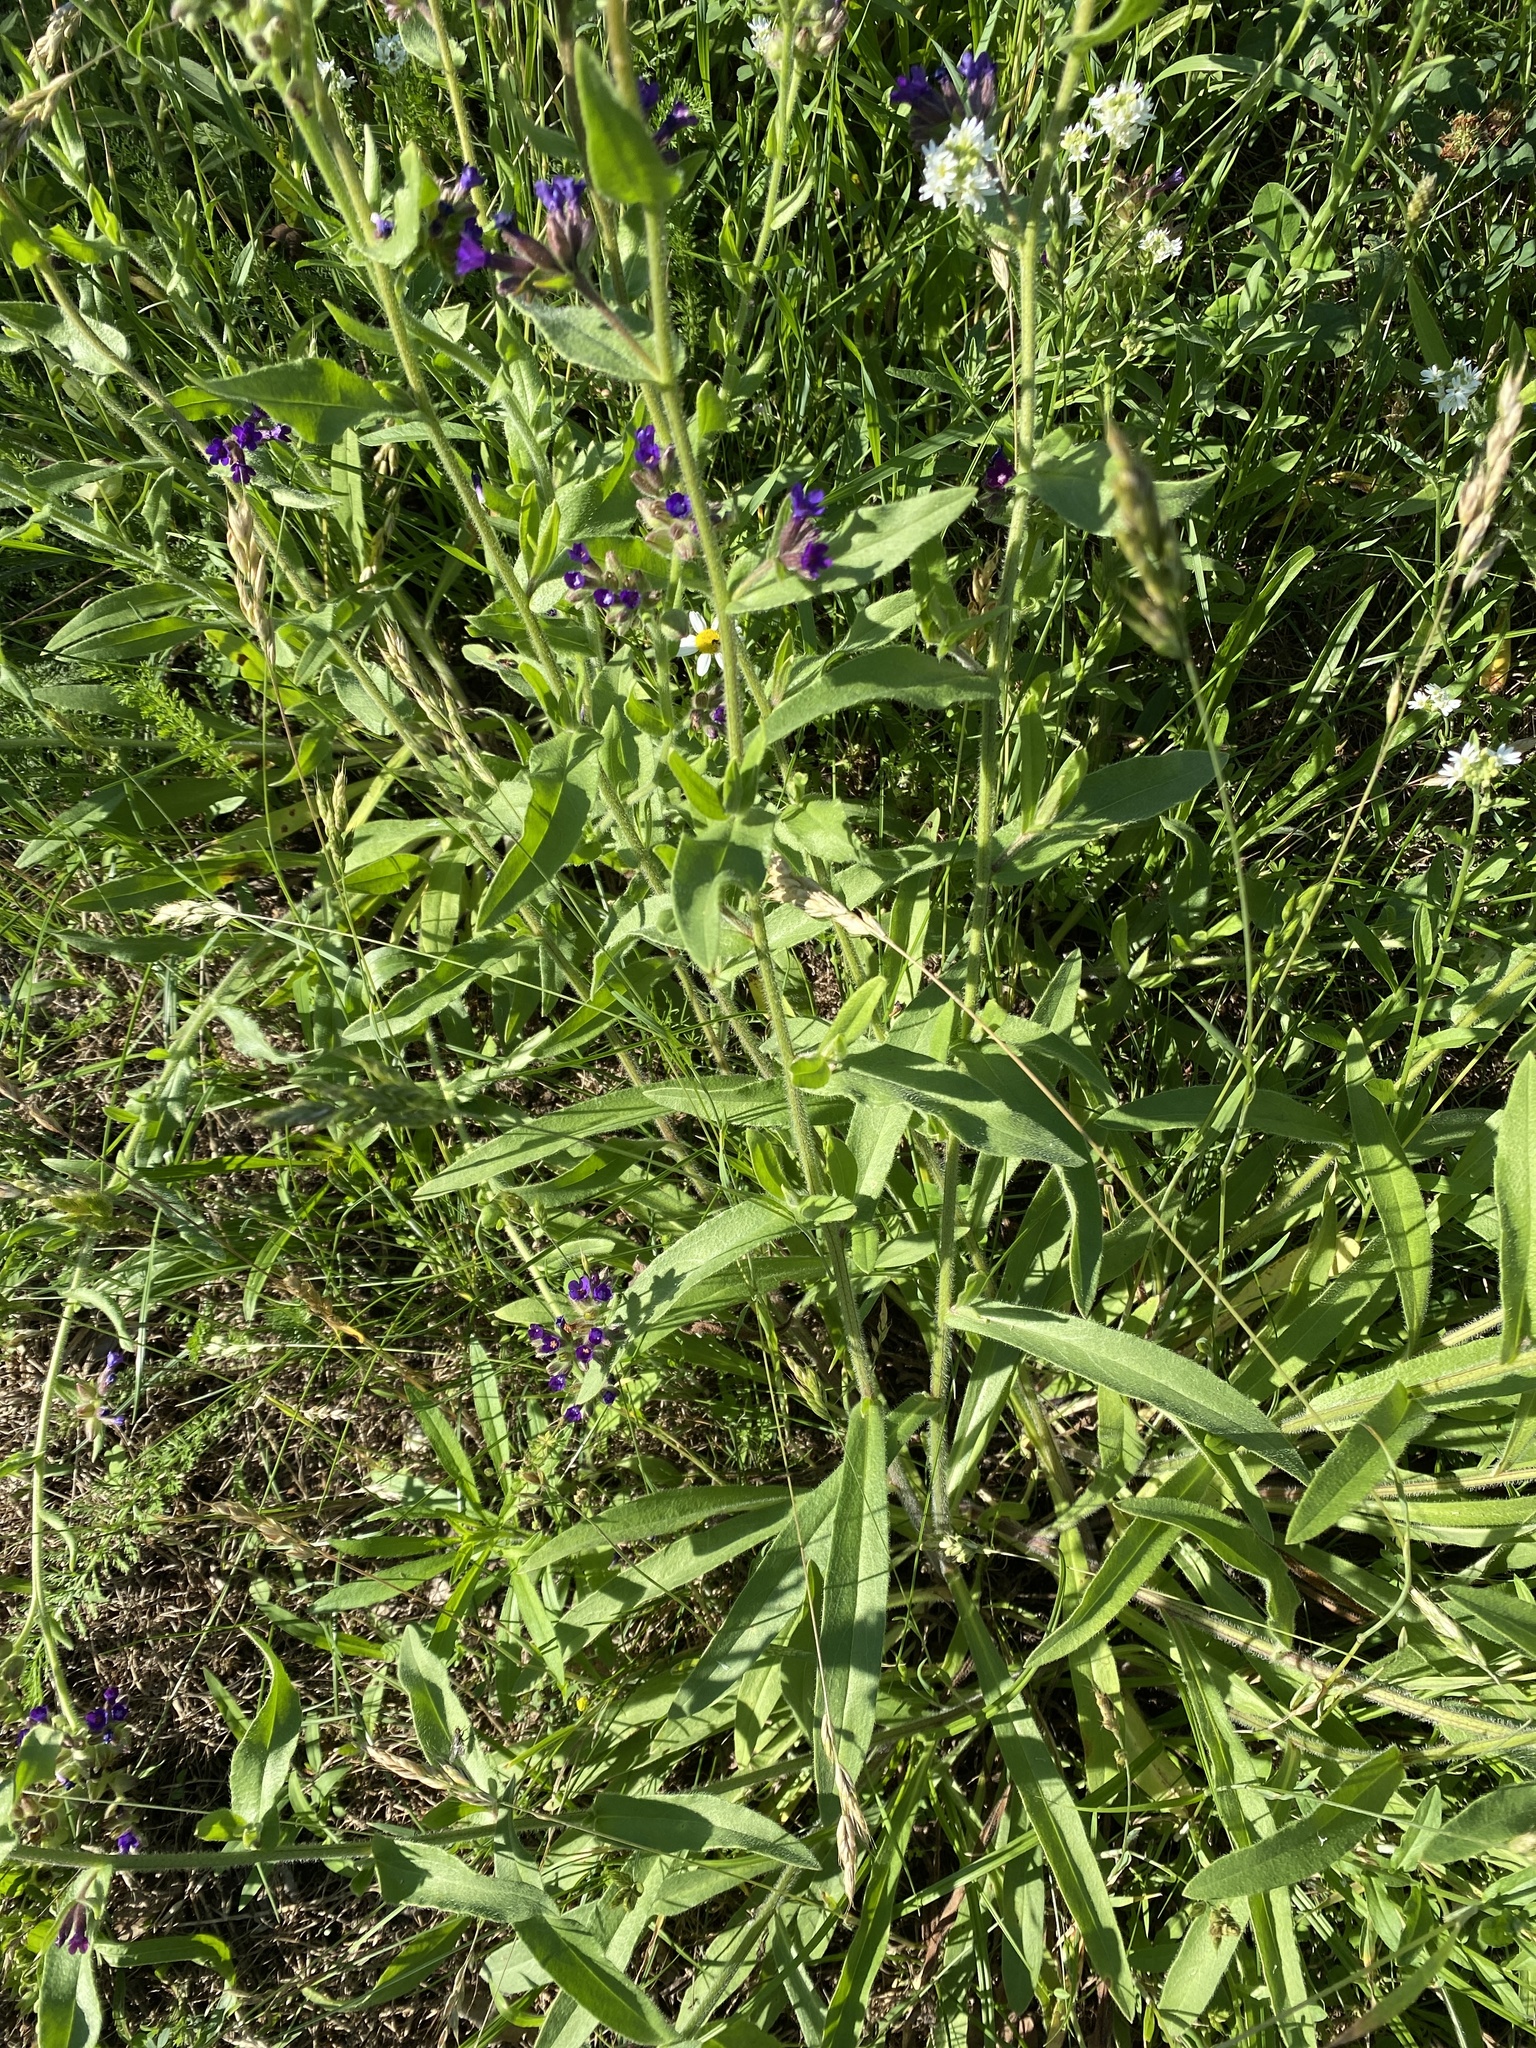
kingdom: Plantae
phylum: Tracheophyta
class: Magnoliopsida
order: Boraginales
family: Boraginaceae
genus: Anchusa
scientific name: Anchusa officinalis
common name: Alkanet
